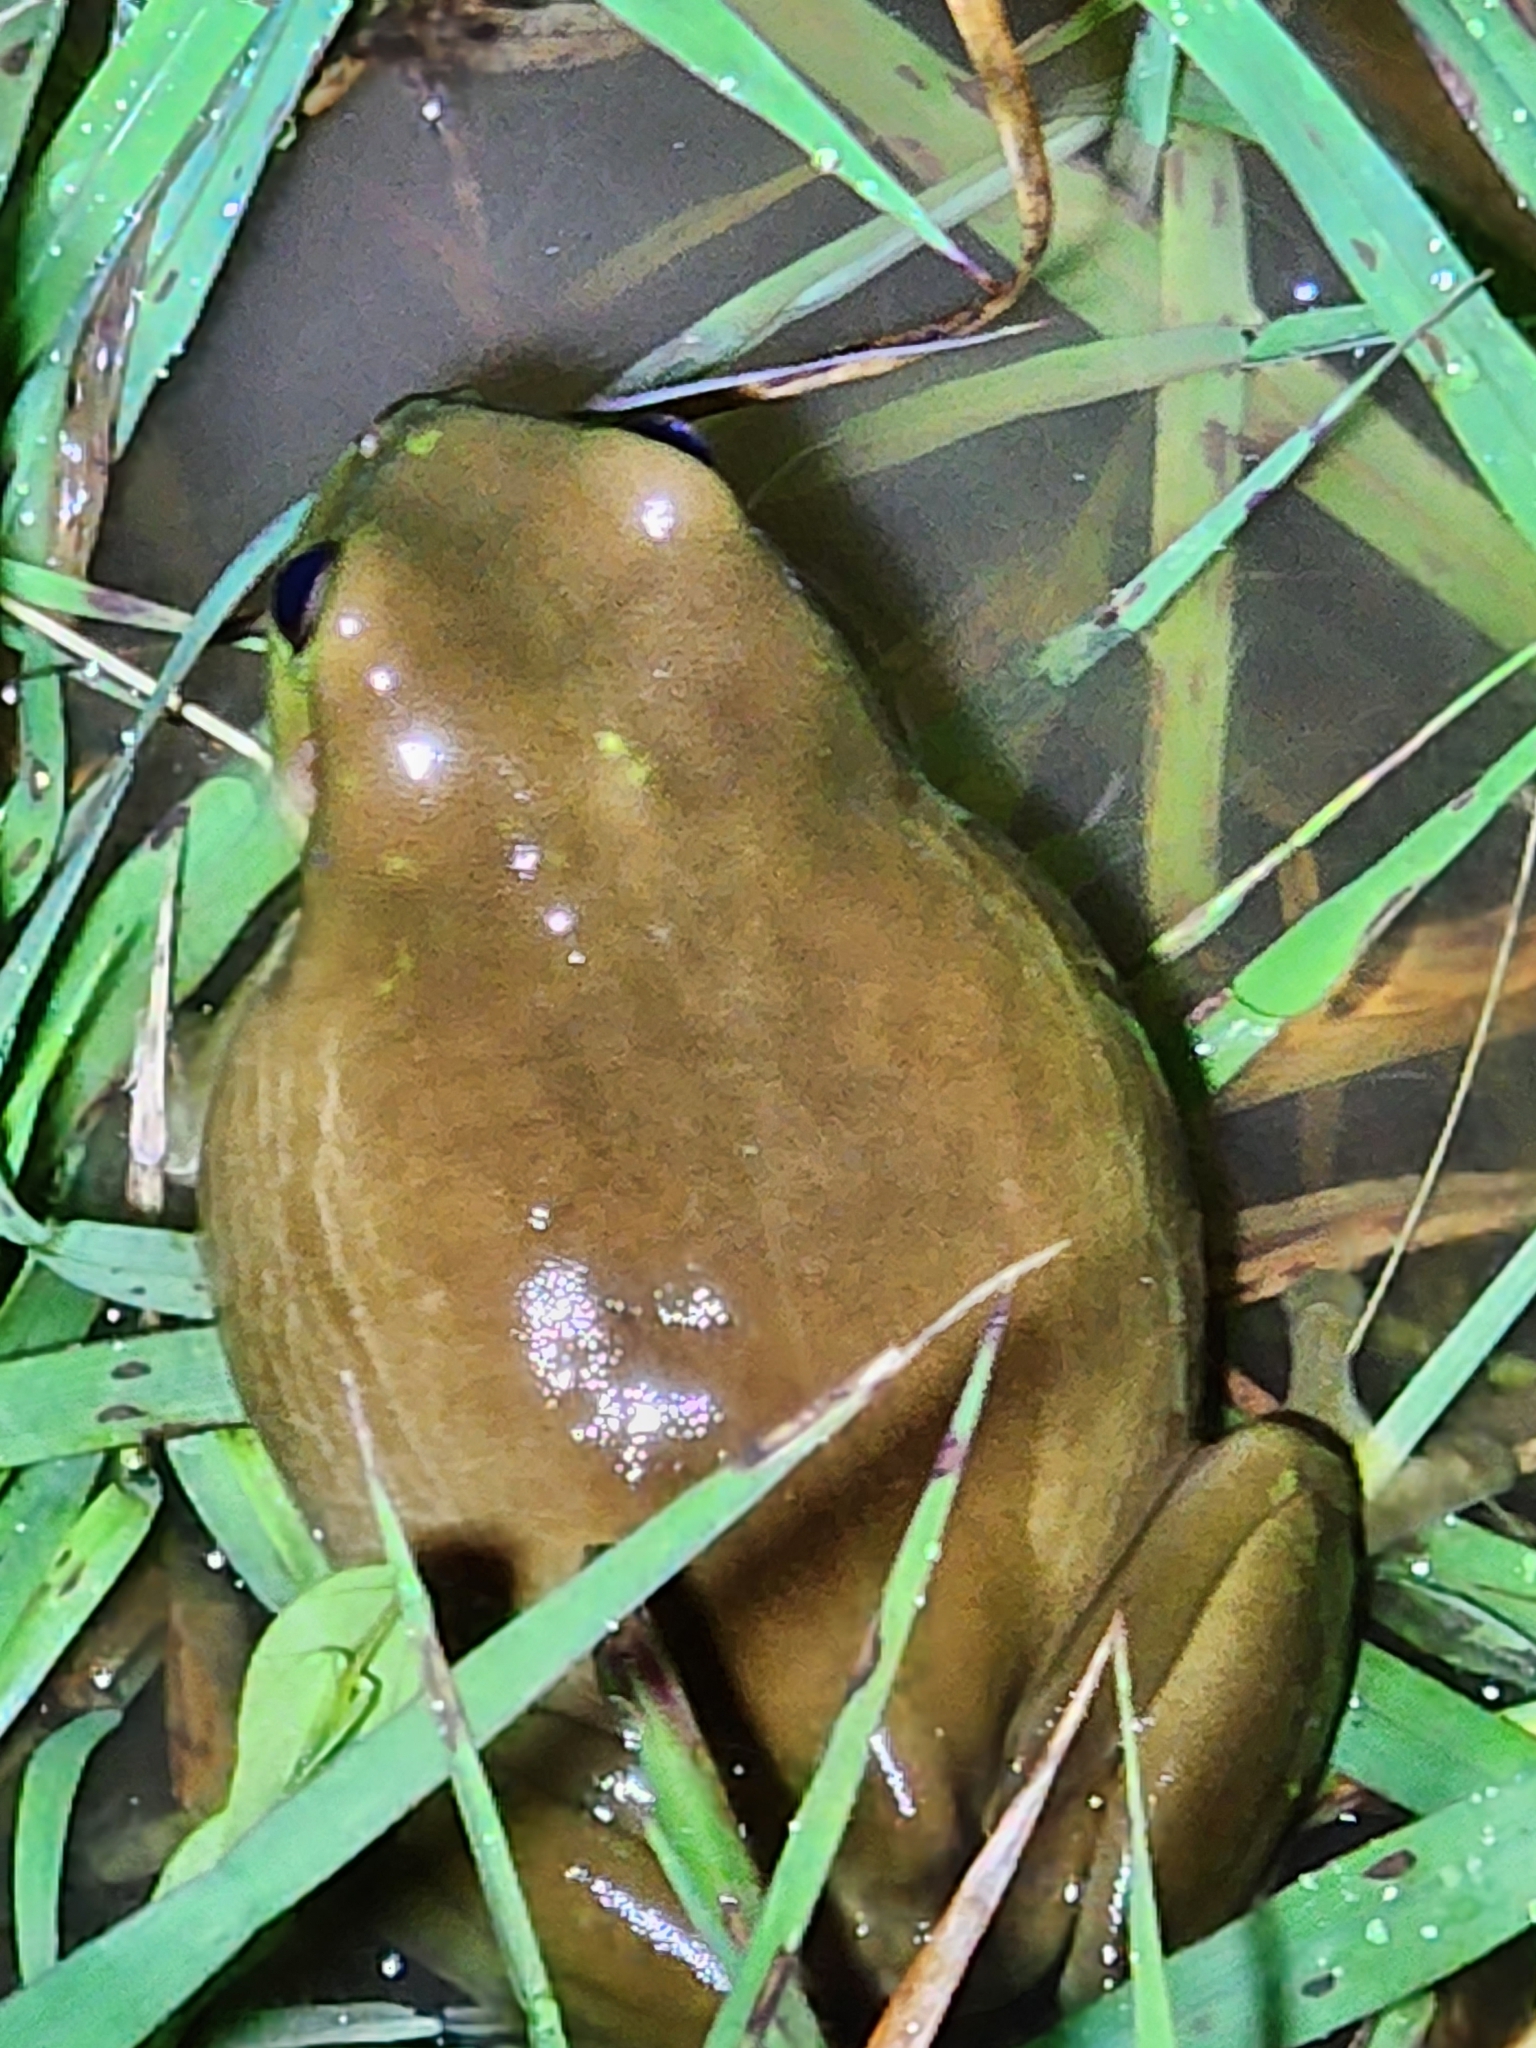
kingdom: Animalia
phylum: Chordata
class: Amphibia
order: Anura
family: Pelodryadidae
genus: Ranoidea
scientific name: Ranoidea caerulea
